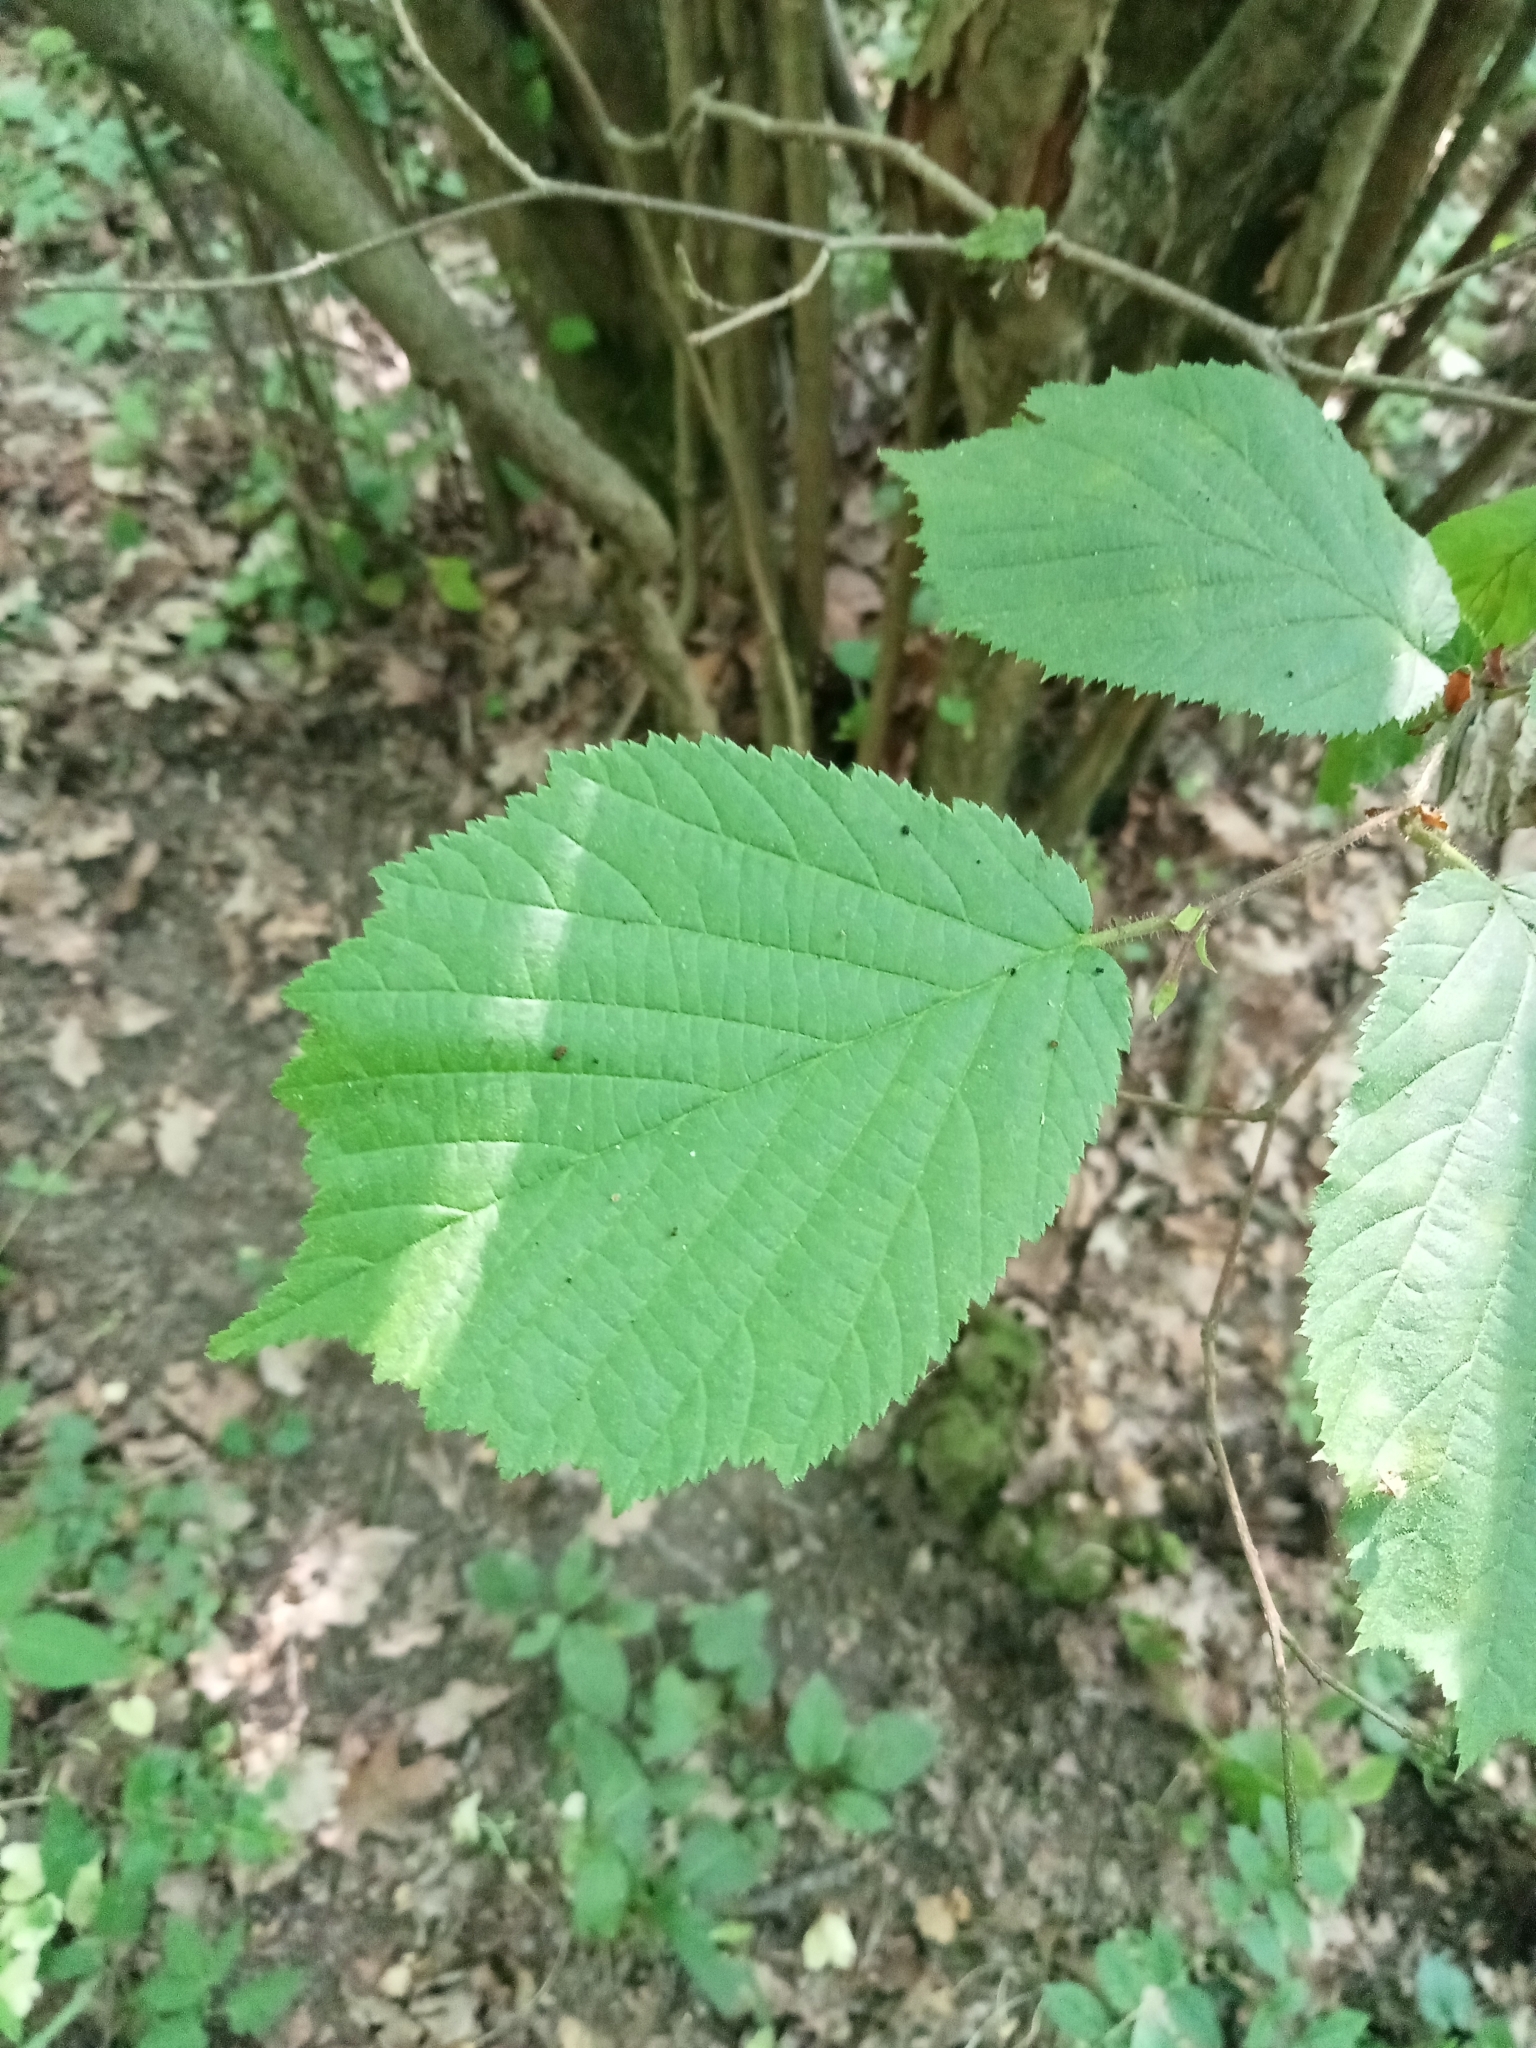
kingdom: Plantae
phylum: Tracheophyta
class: Magnoliopsida
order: Fagales
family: Betulaceae
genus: Corylus
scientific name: Corylus avellana
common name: European hazel
